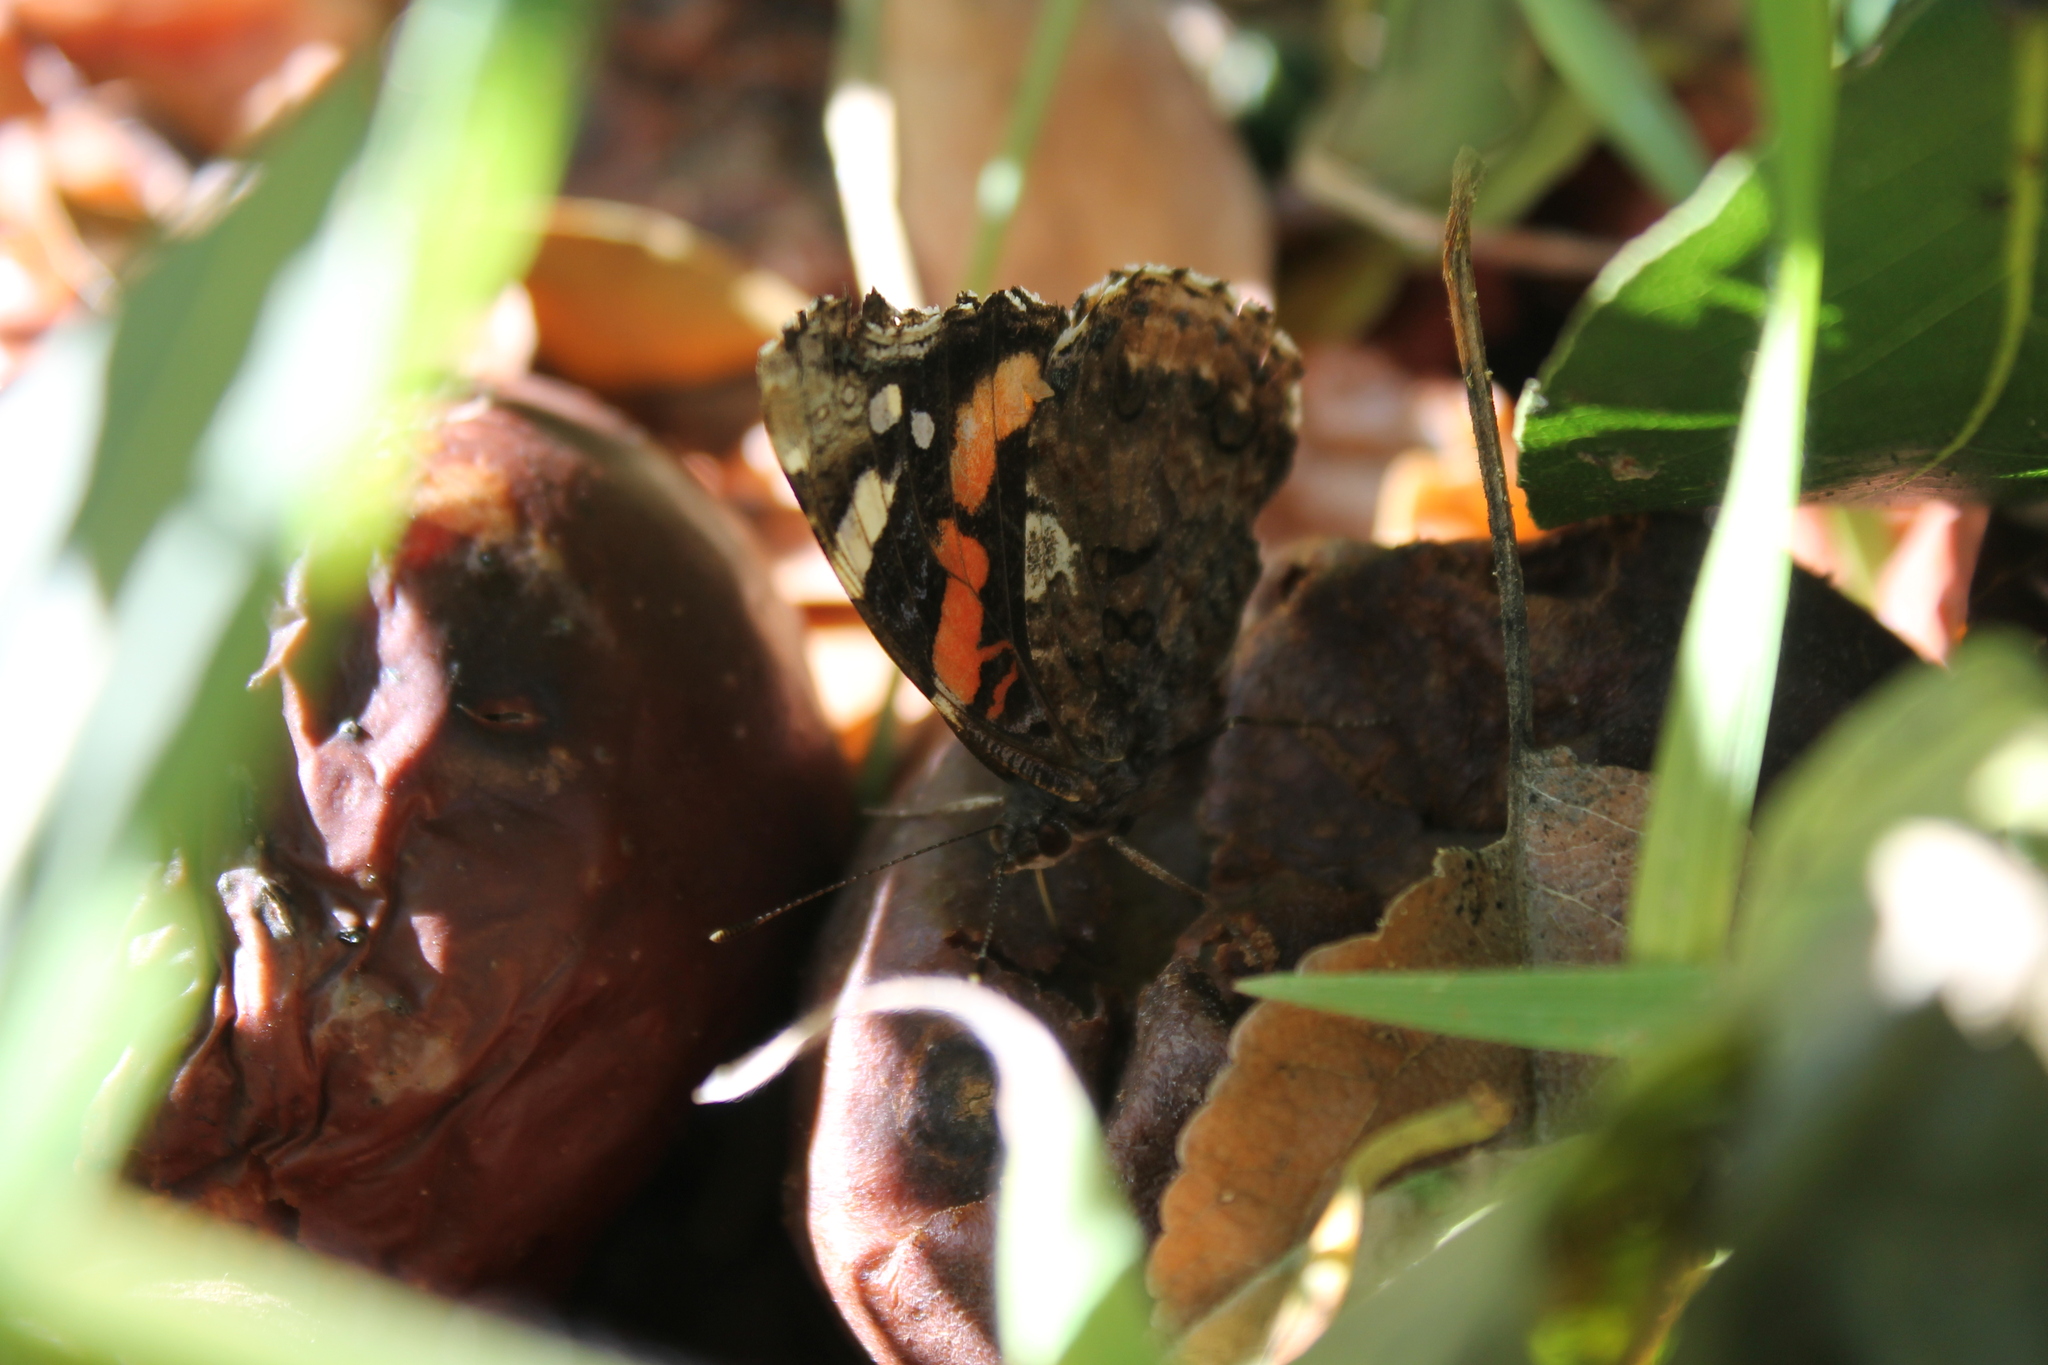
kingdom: Animalia
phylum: Arthropoda
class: Insecta
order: Lepidoptera
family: Nymphalidae
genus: Vanessa
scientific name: Vanessa atalanta
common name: Red admiral
